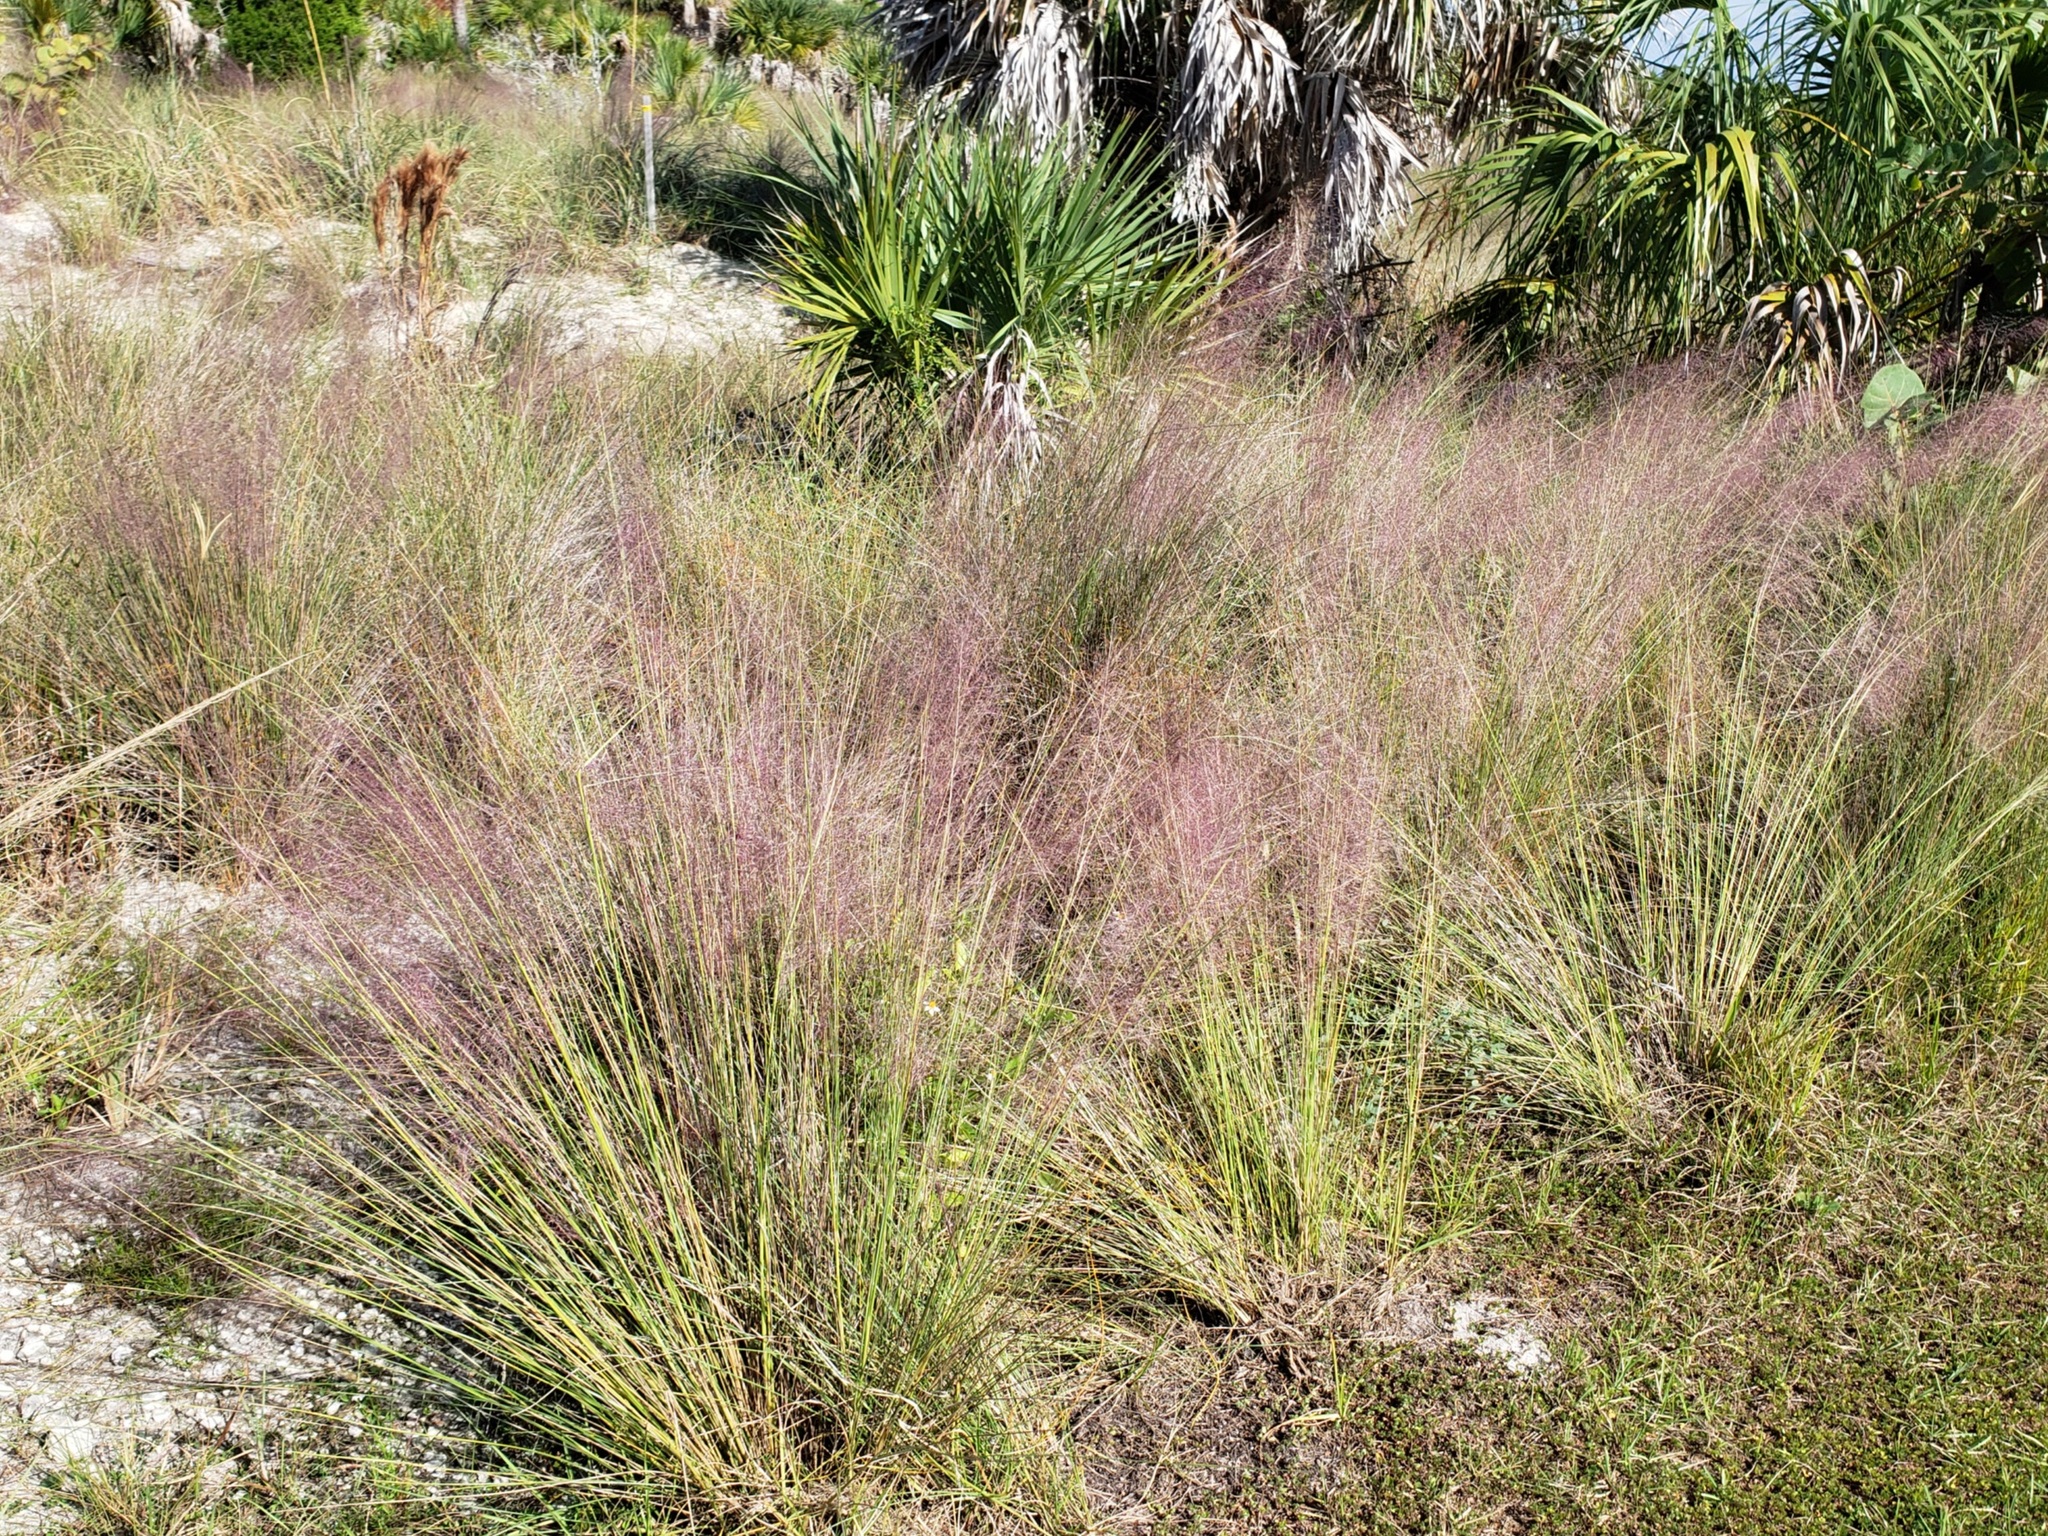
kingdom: Plantae
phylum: Tracheophyta
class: Liliopsida
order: Poales
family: Poaceae
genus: Muhlenbergia
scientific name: Muhlenbergia capillaris
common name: Purple grass
